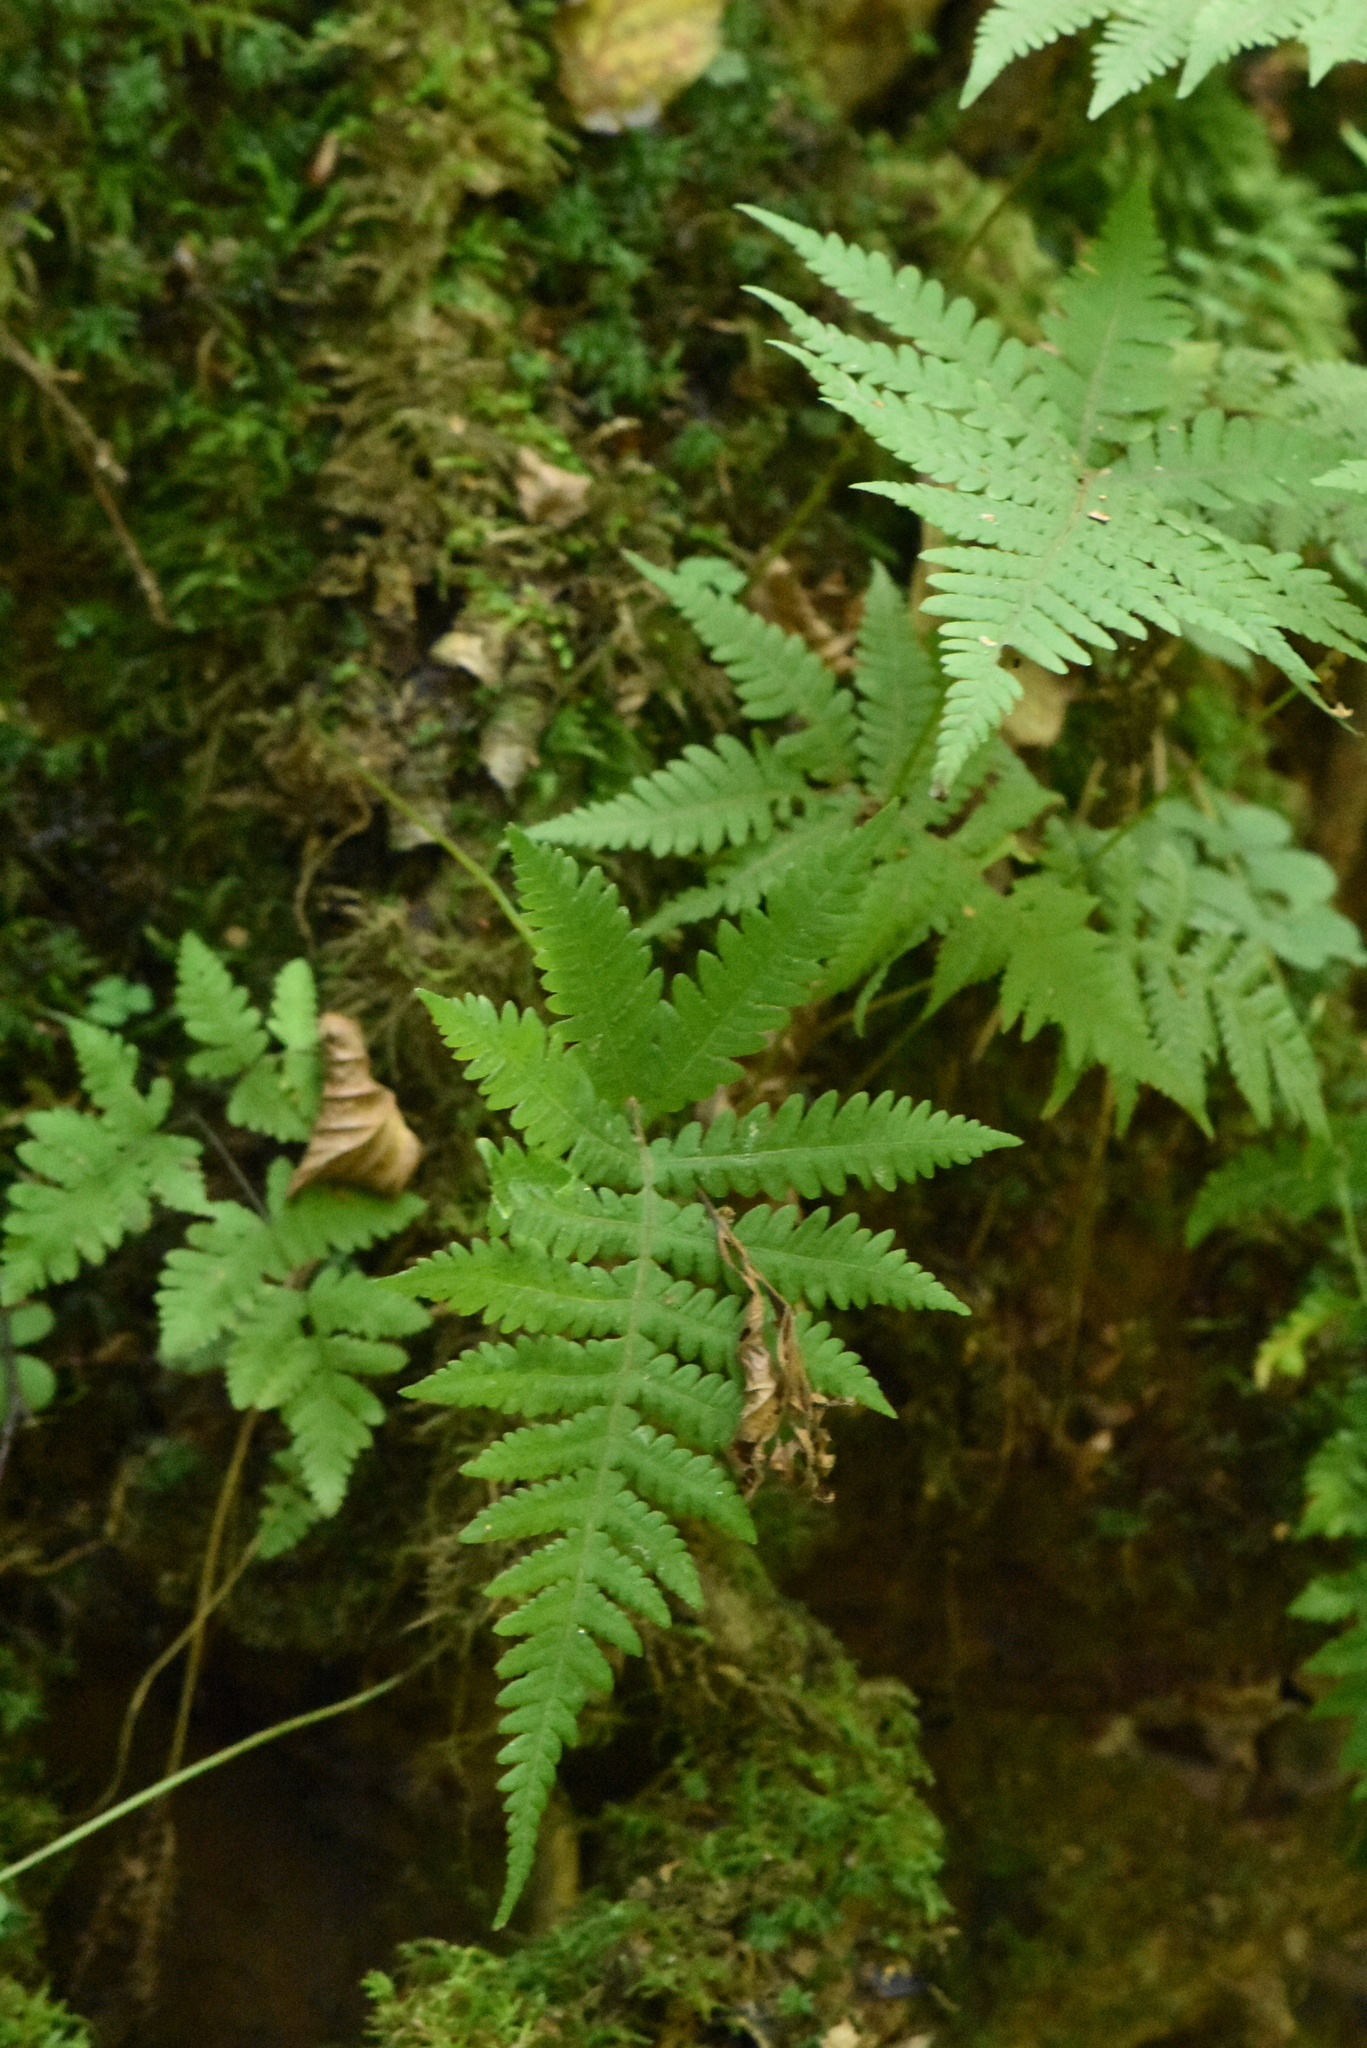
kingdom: Plantae
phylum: Tracheophyta
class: Polypodiopsida
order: Polypodiales
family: Thelypteridaceae
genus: Phegopteris
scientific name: Phegopteris connectilis
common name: Beech fern
